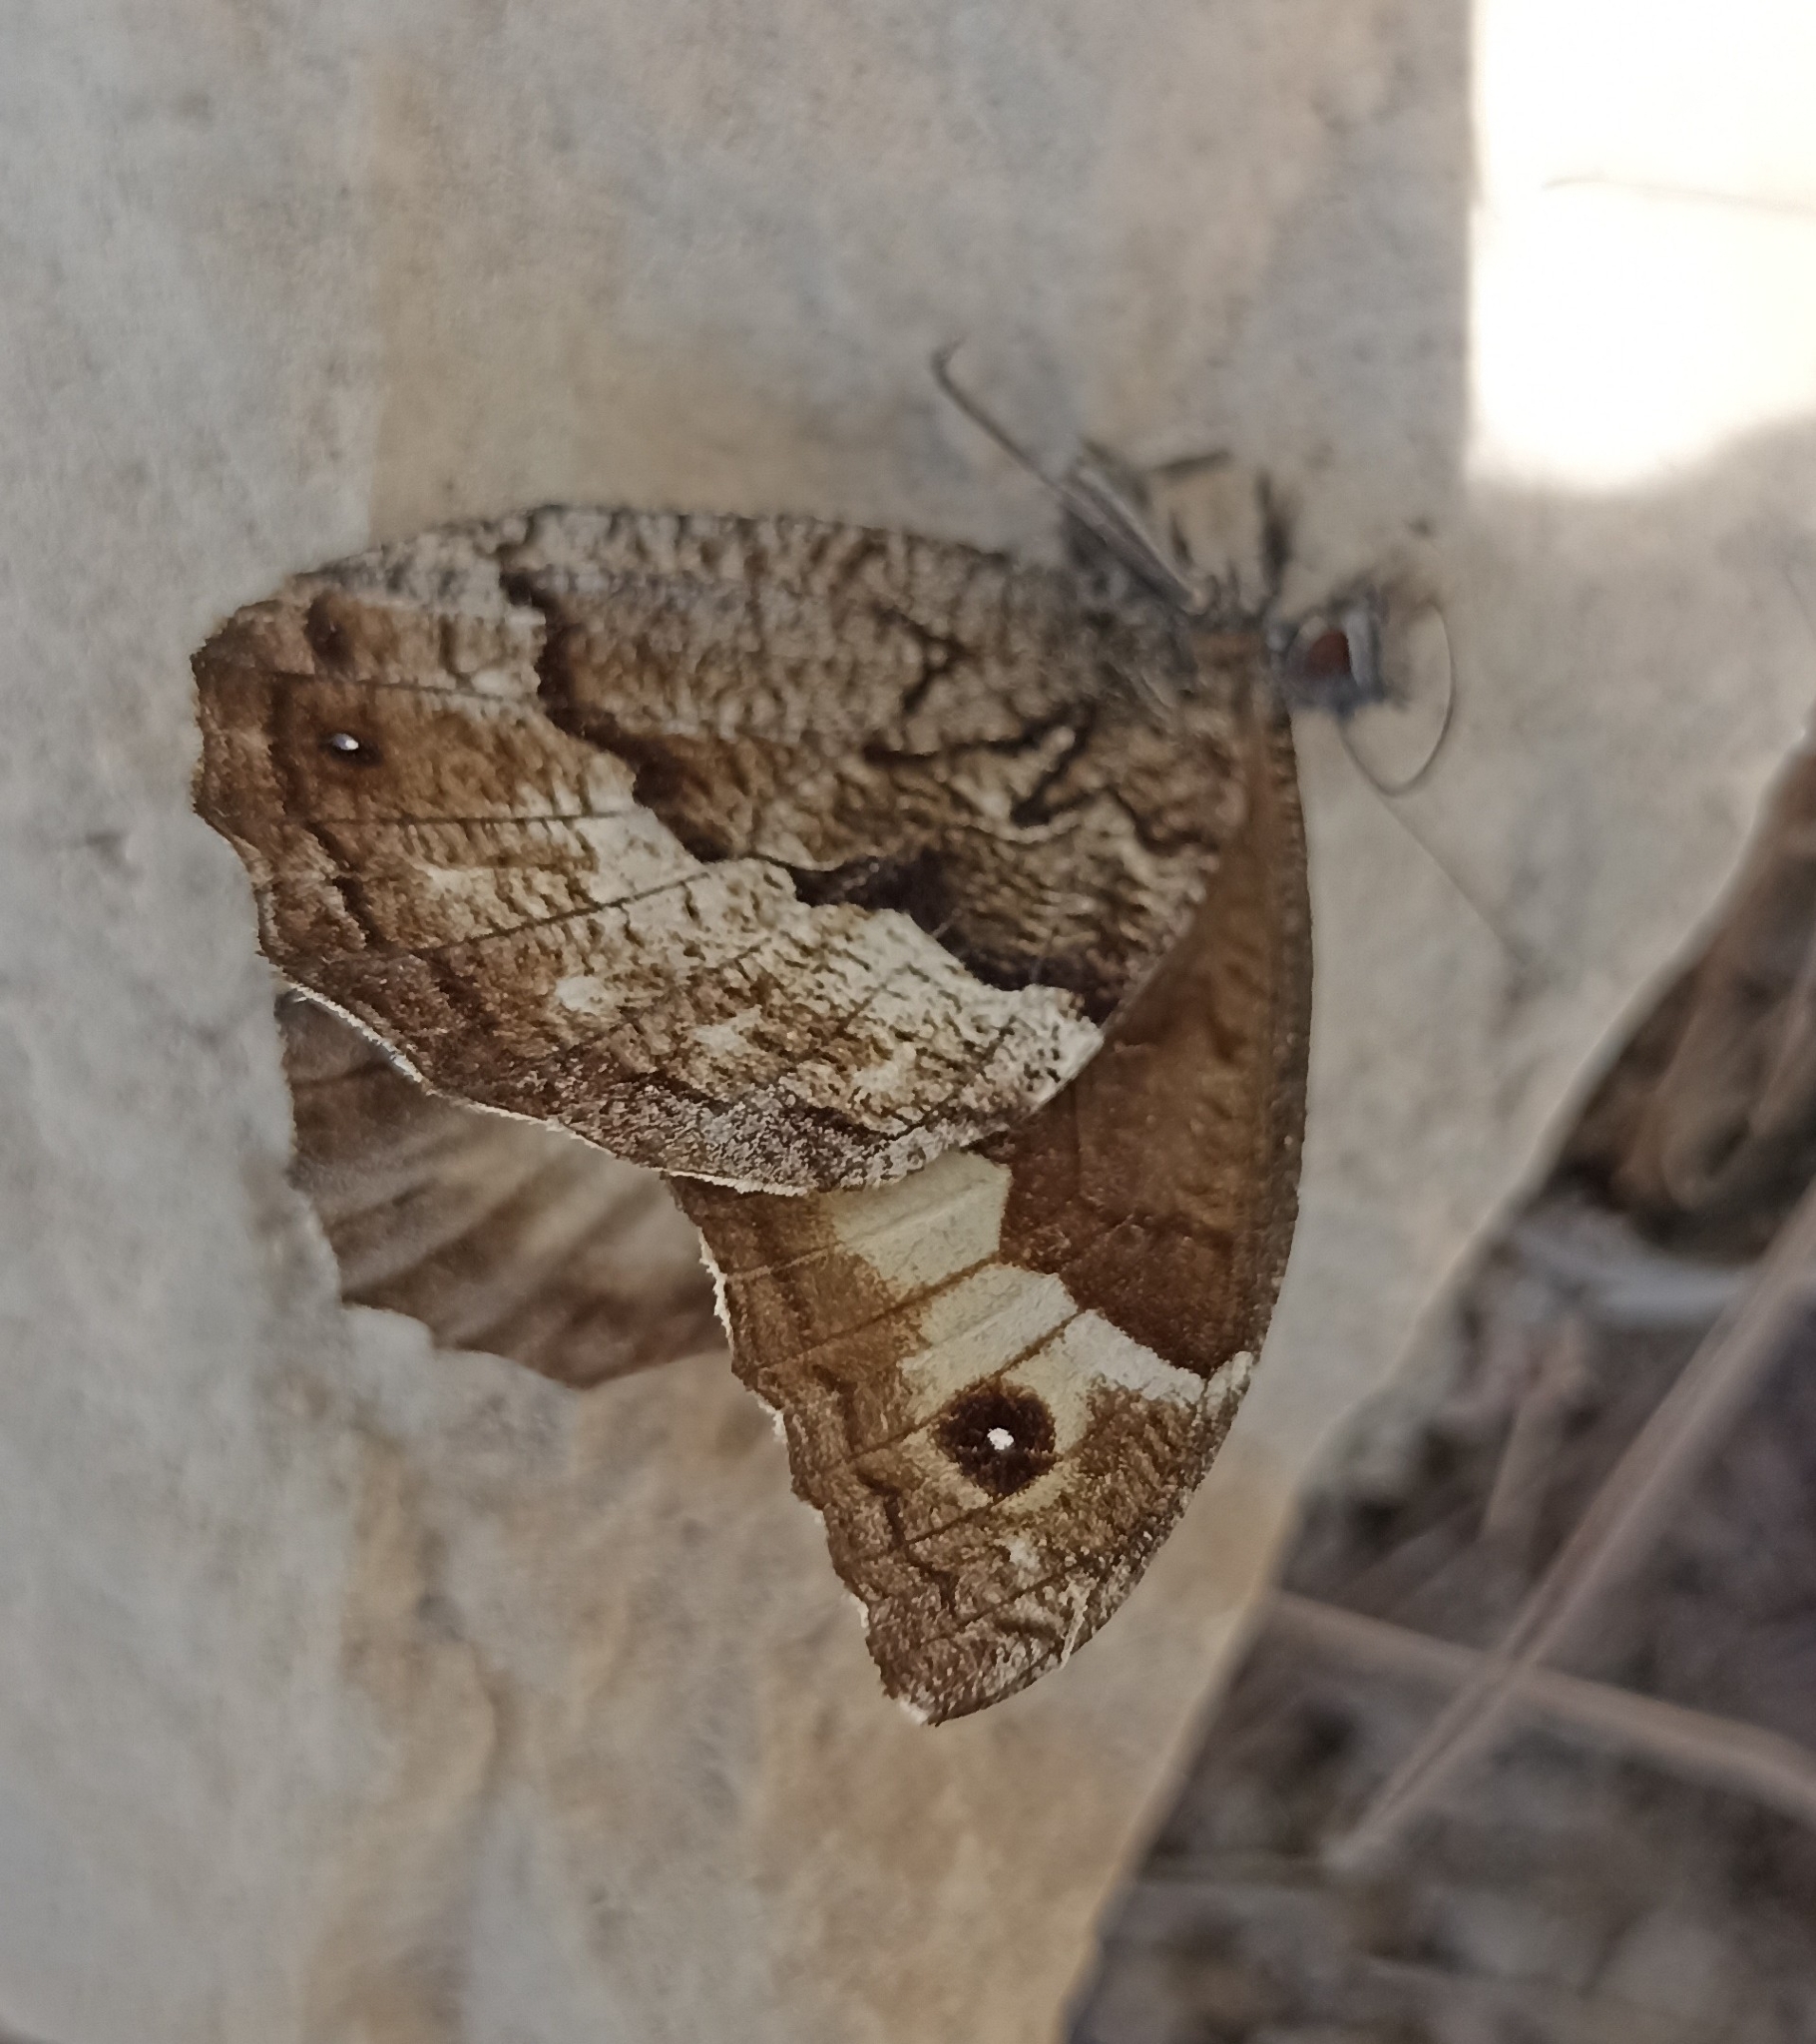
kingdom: Animalia
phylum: Arthropoda
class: Insecta
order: Lepidoptera
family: Nymphalidae
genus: Hipparchia
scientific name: Hipparchia syriaca
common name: Eastern rock grayling
